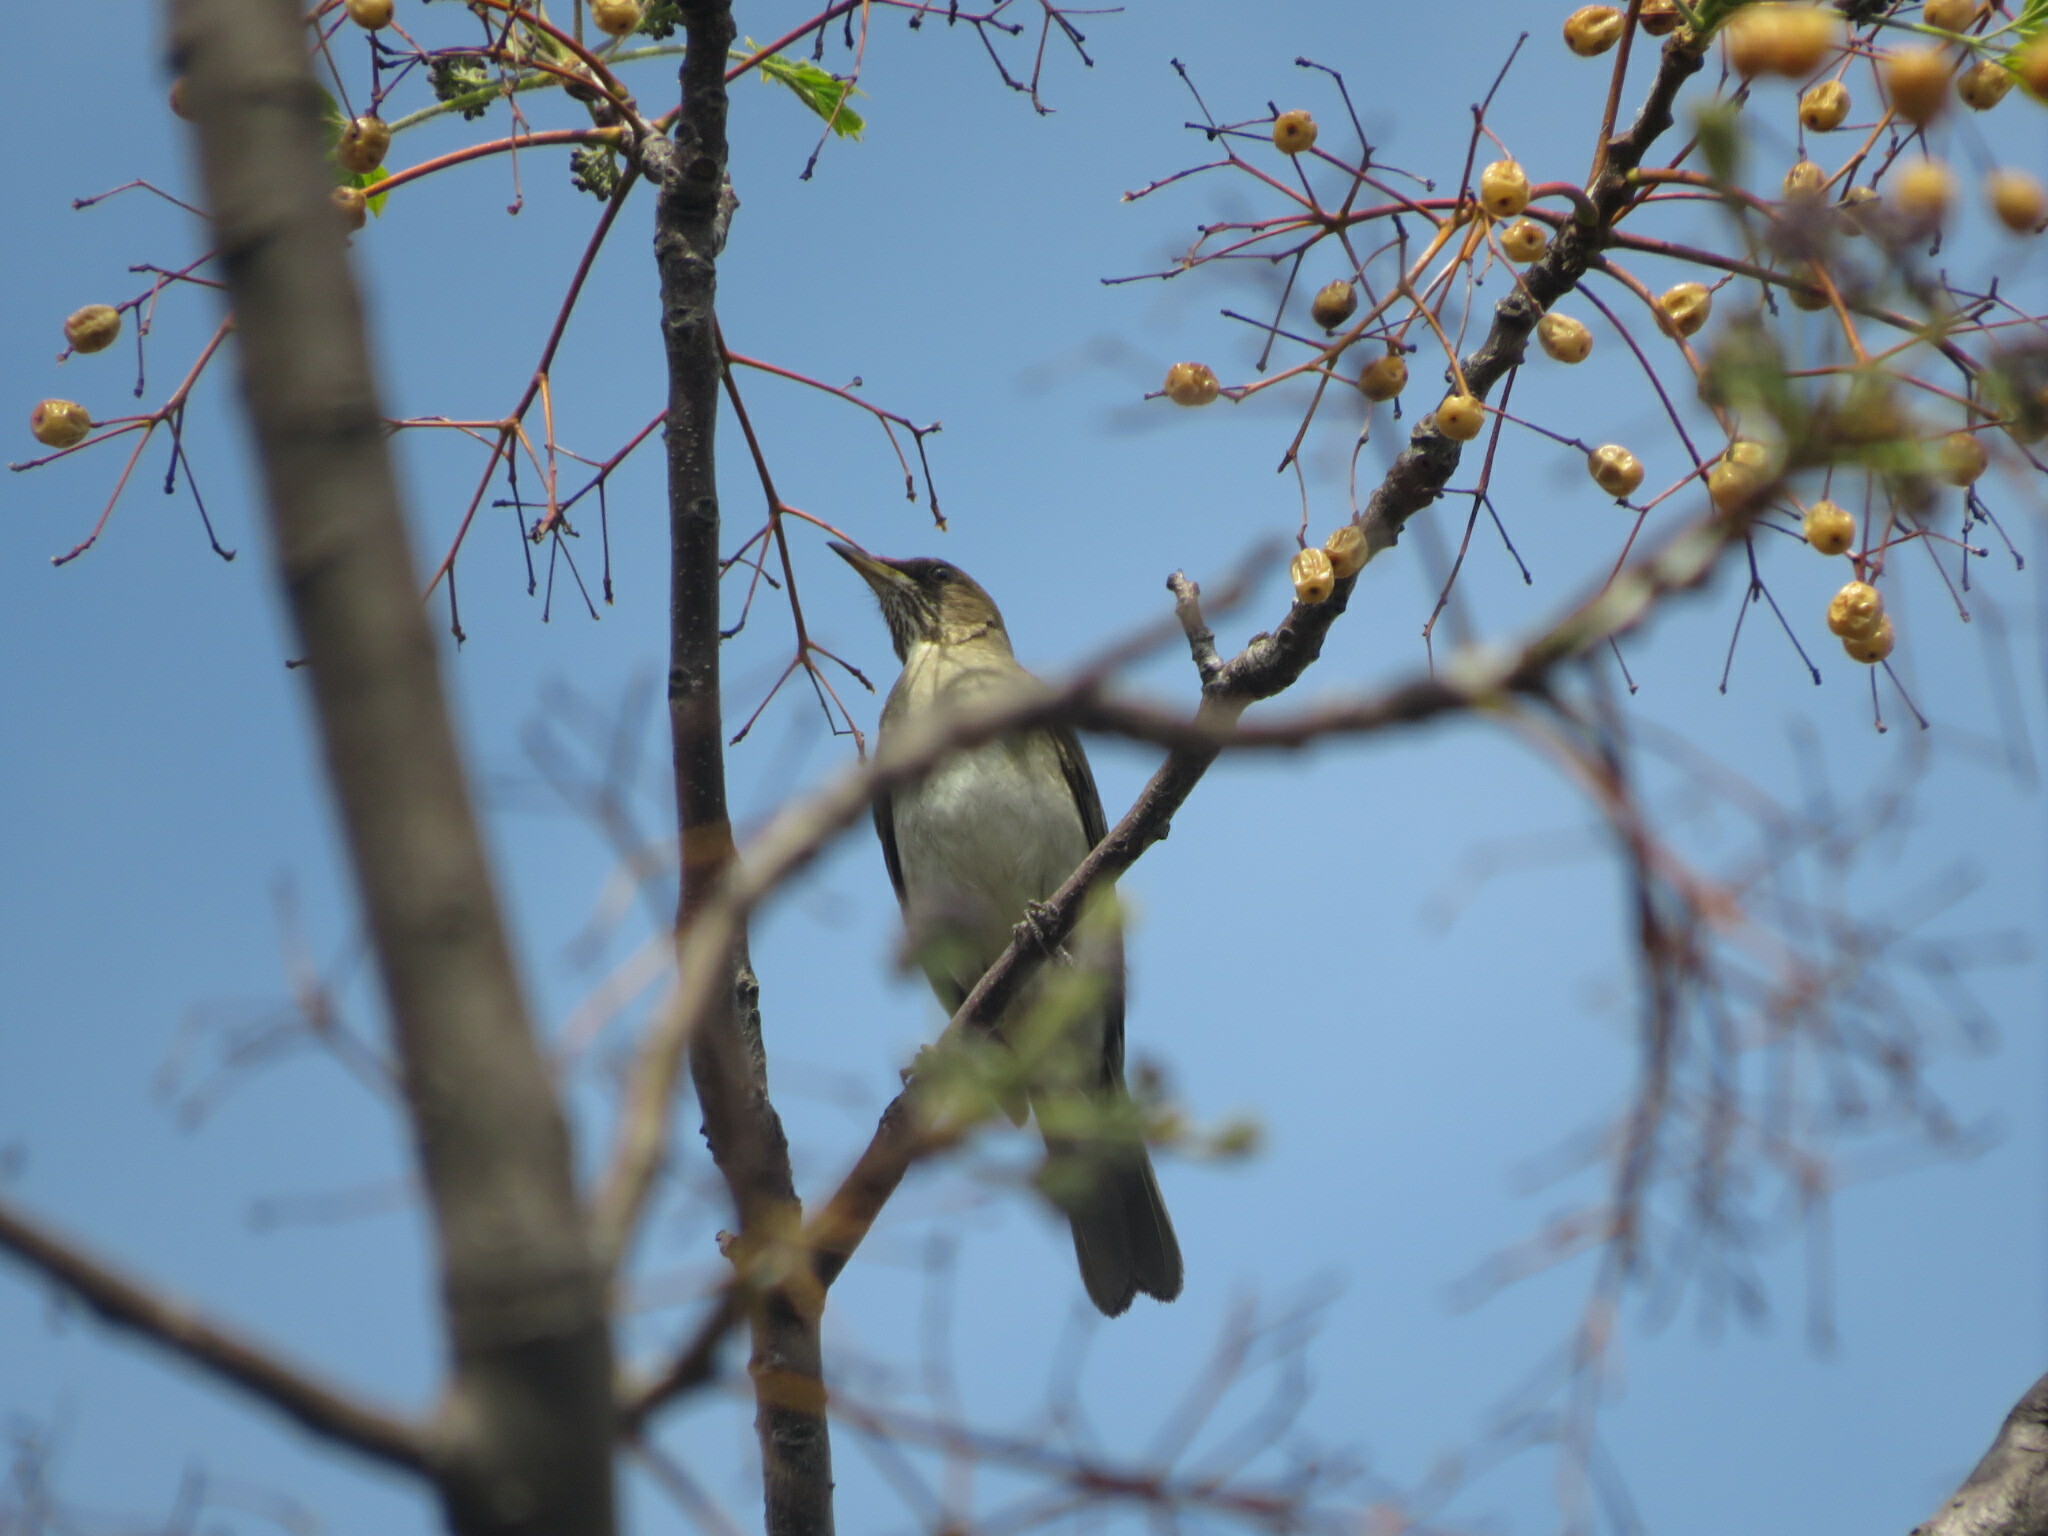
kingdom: Animalia
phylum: Chordata
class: Aves
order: Passeriformes
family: Turdidae
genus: Turdus
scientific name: Turdus amaurochalinus
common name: Creamy-bellied thrush
